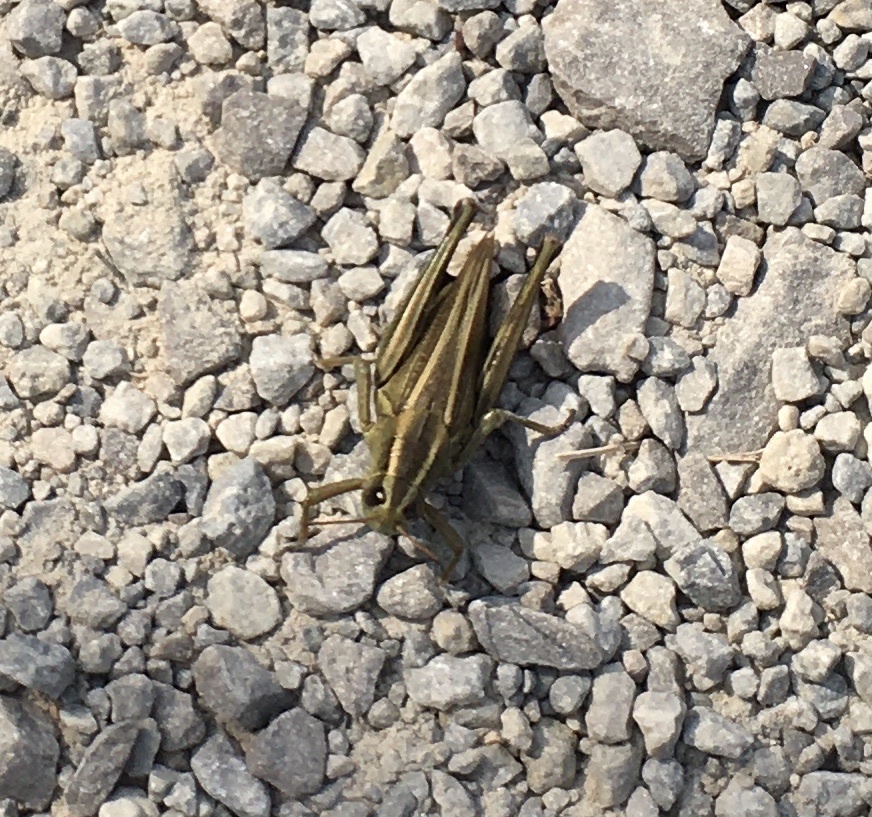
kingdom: Animalia
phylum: Arthropoda
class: Insecta
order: Orthoptera
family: Acrididae
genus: Melanoplus
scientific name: Melanoplus bivittatus
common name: Two-striped grasshopper
